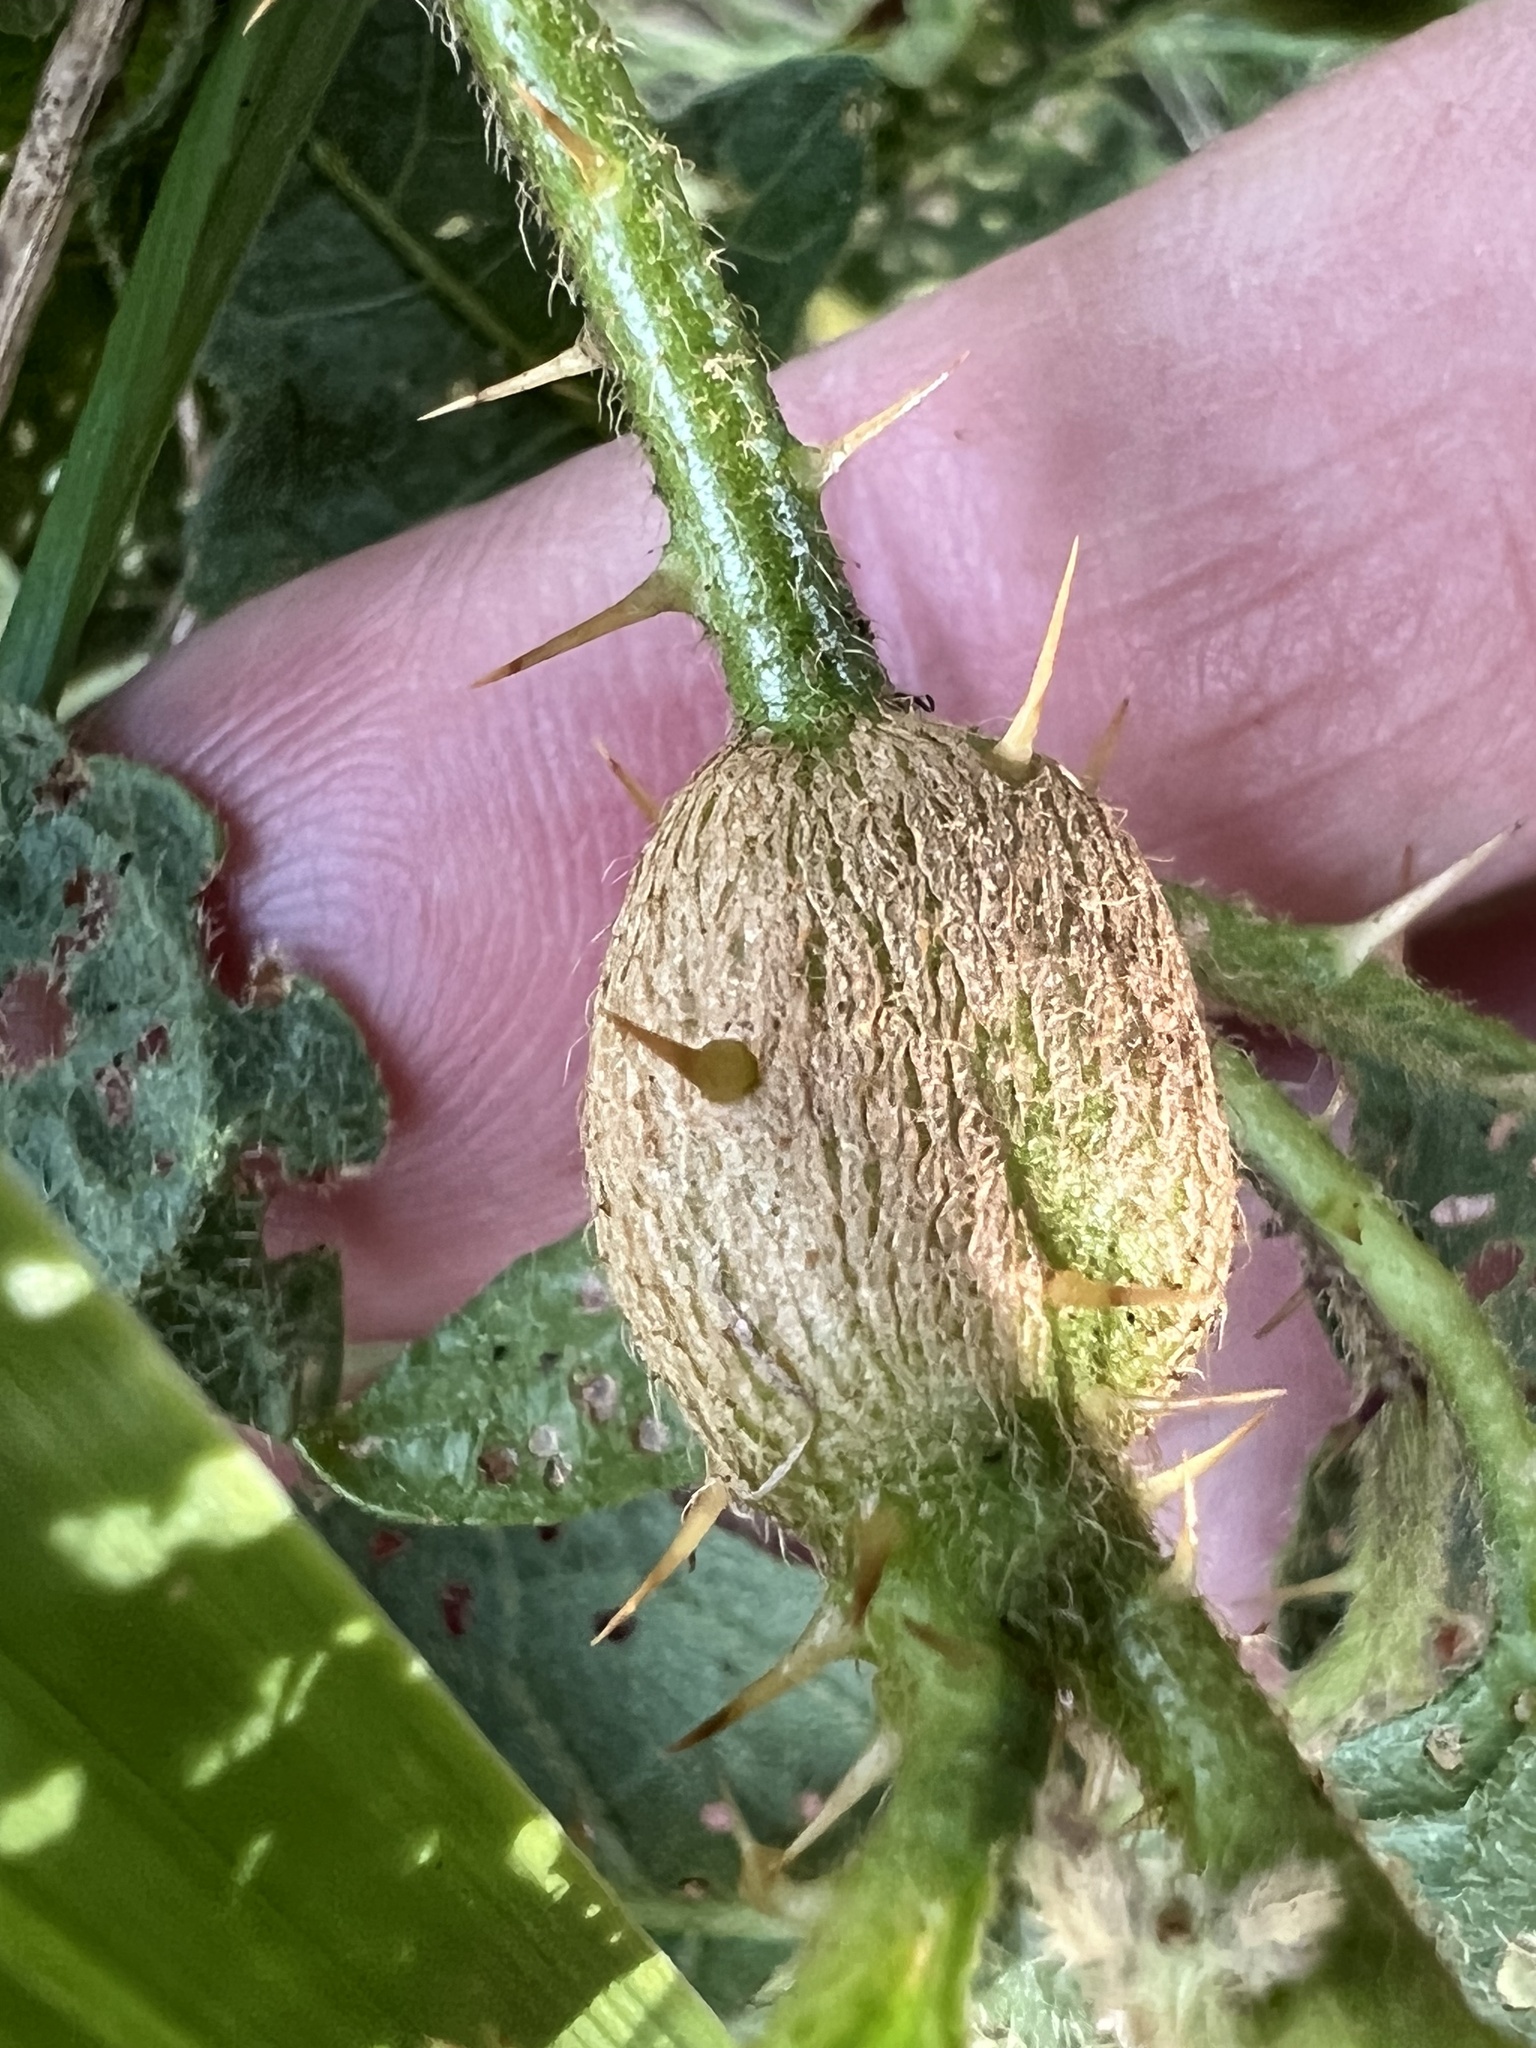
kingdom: Animalia
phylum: Arthropoda
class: Insecta
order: Diptera
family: Cecidomyiidae
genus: Lasioptera
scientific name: Lasioptera solani
